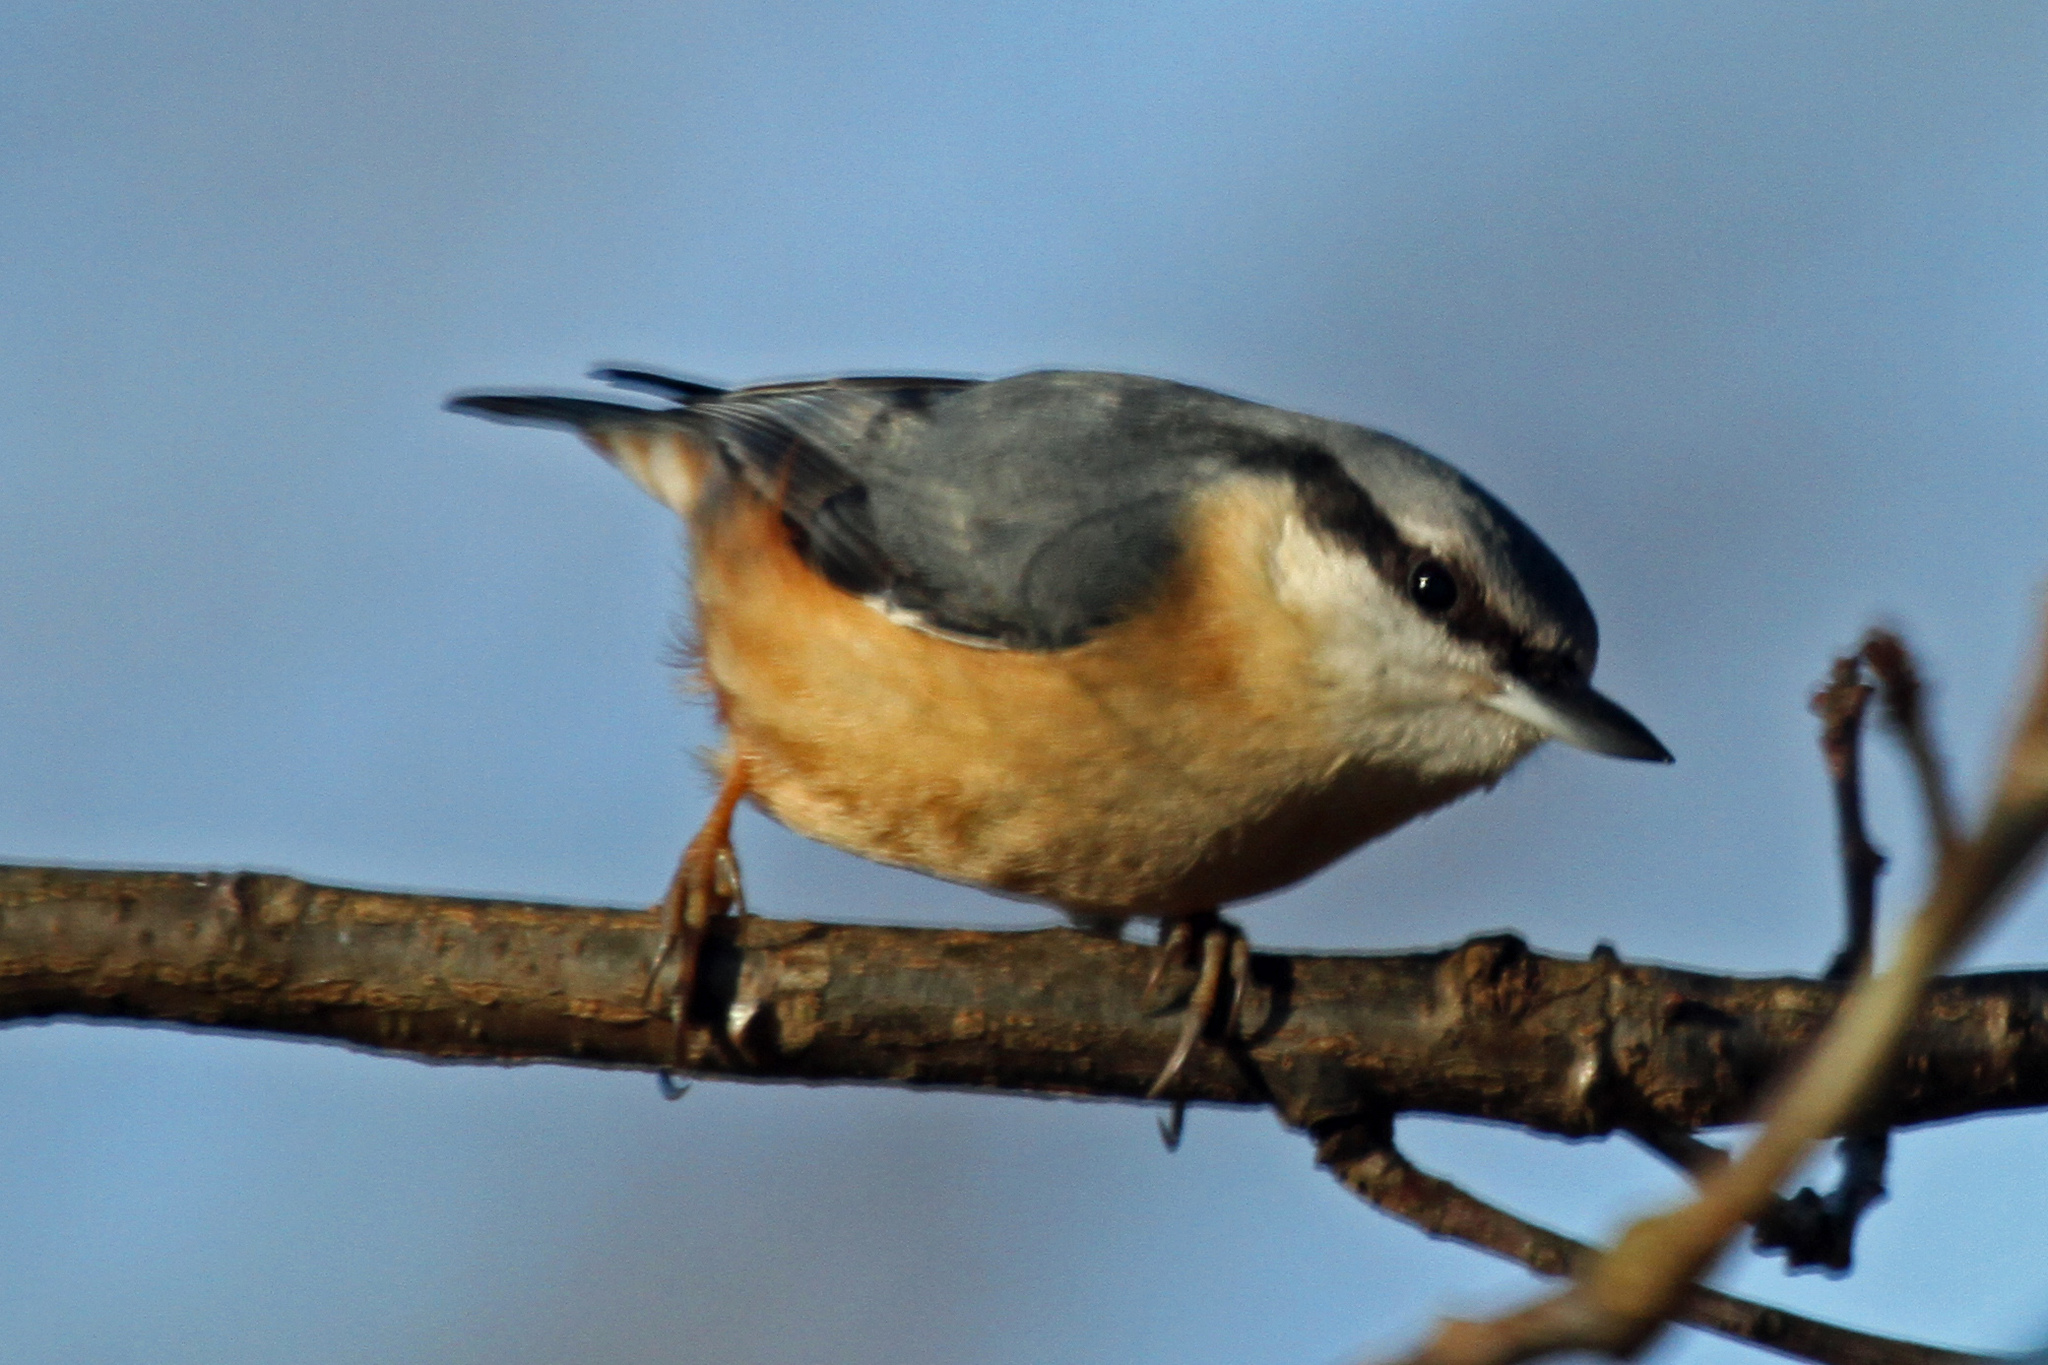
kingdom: Animalia
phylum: Chordata
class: Aves
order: Passeriformes
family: Sittidae
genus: Sitta
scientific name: Sitta europaea
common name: Eurasian nuthatch
